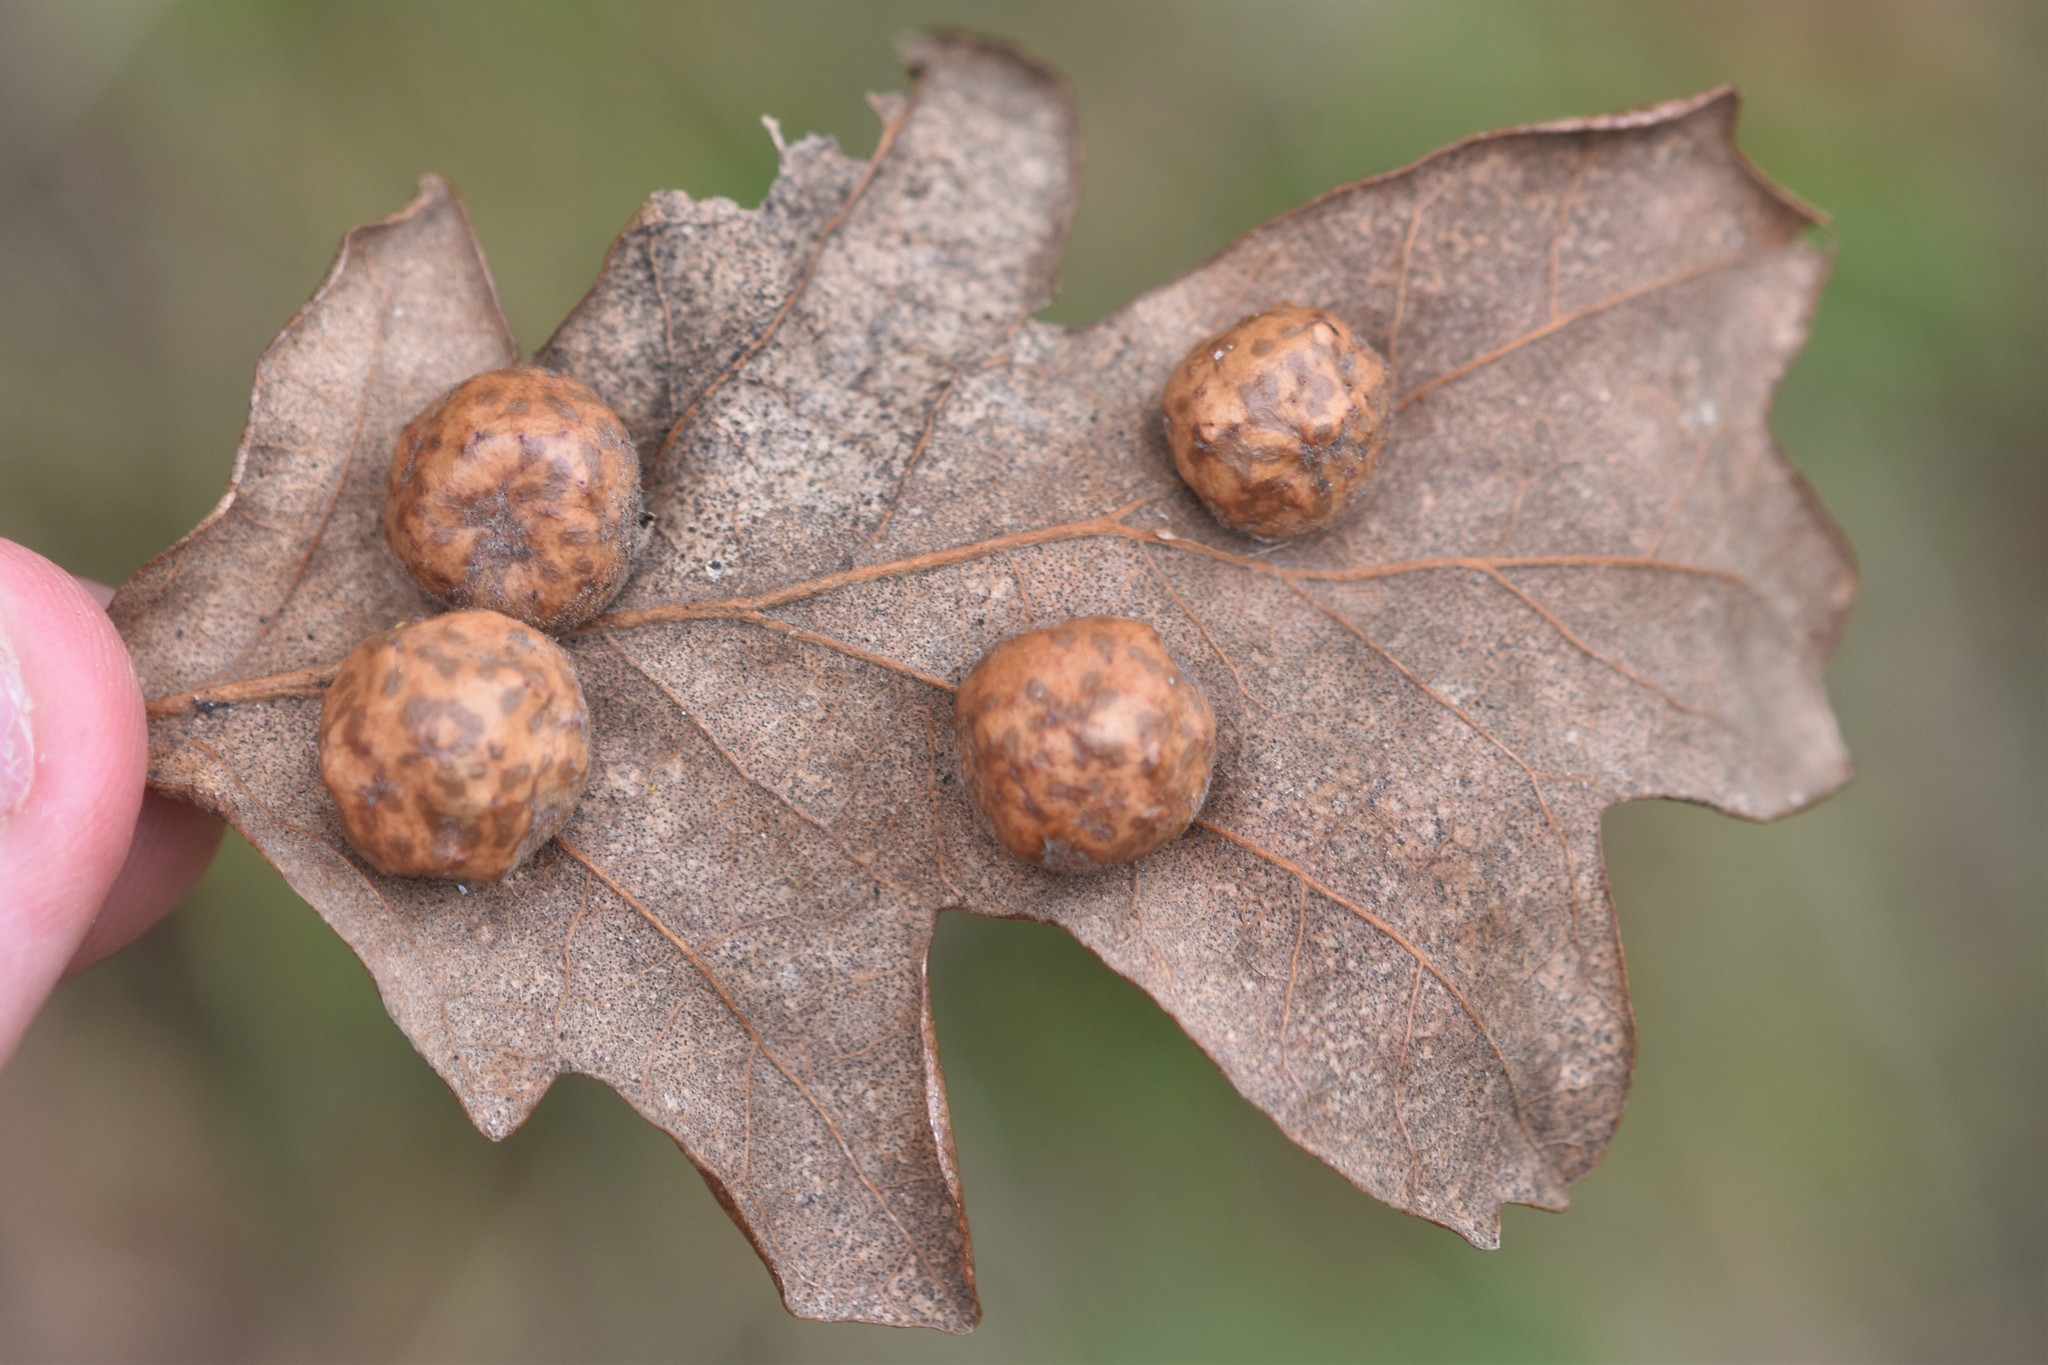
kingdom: Animalia
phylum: Arthropoda
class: Insecta
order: Hymenoptera
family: Cynipidae
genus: Cynips
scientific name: Cynips
